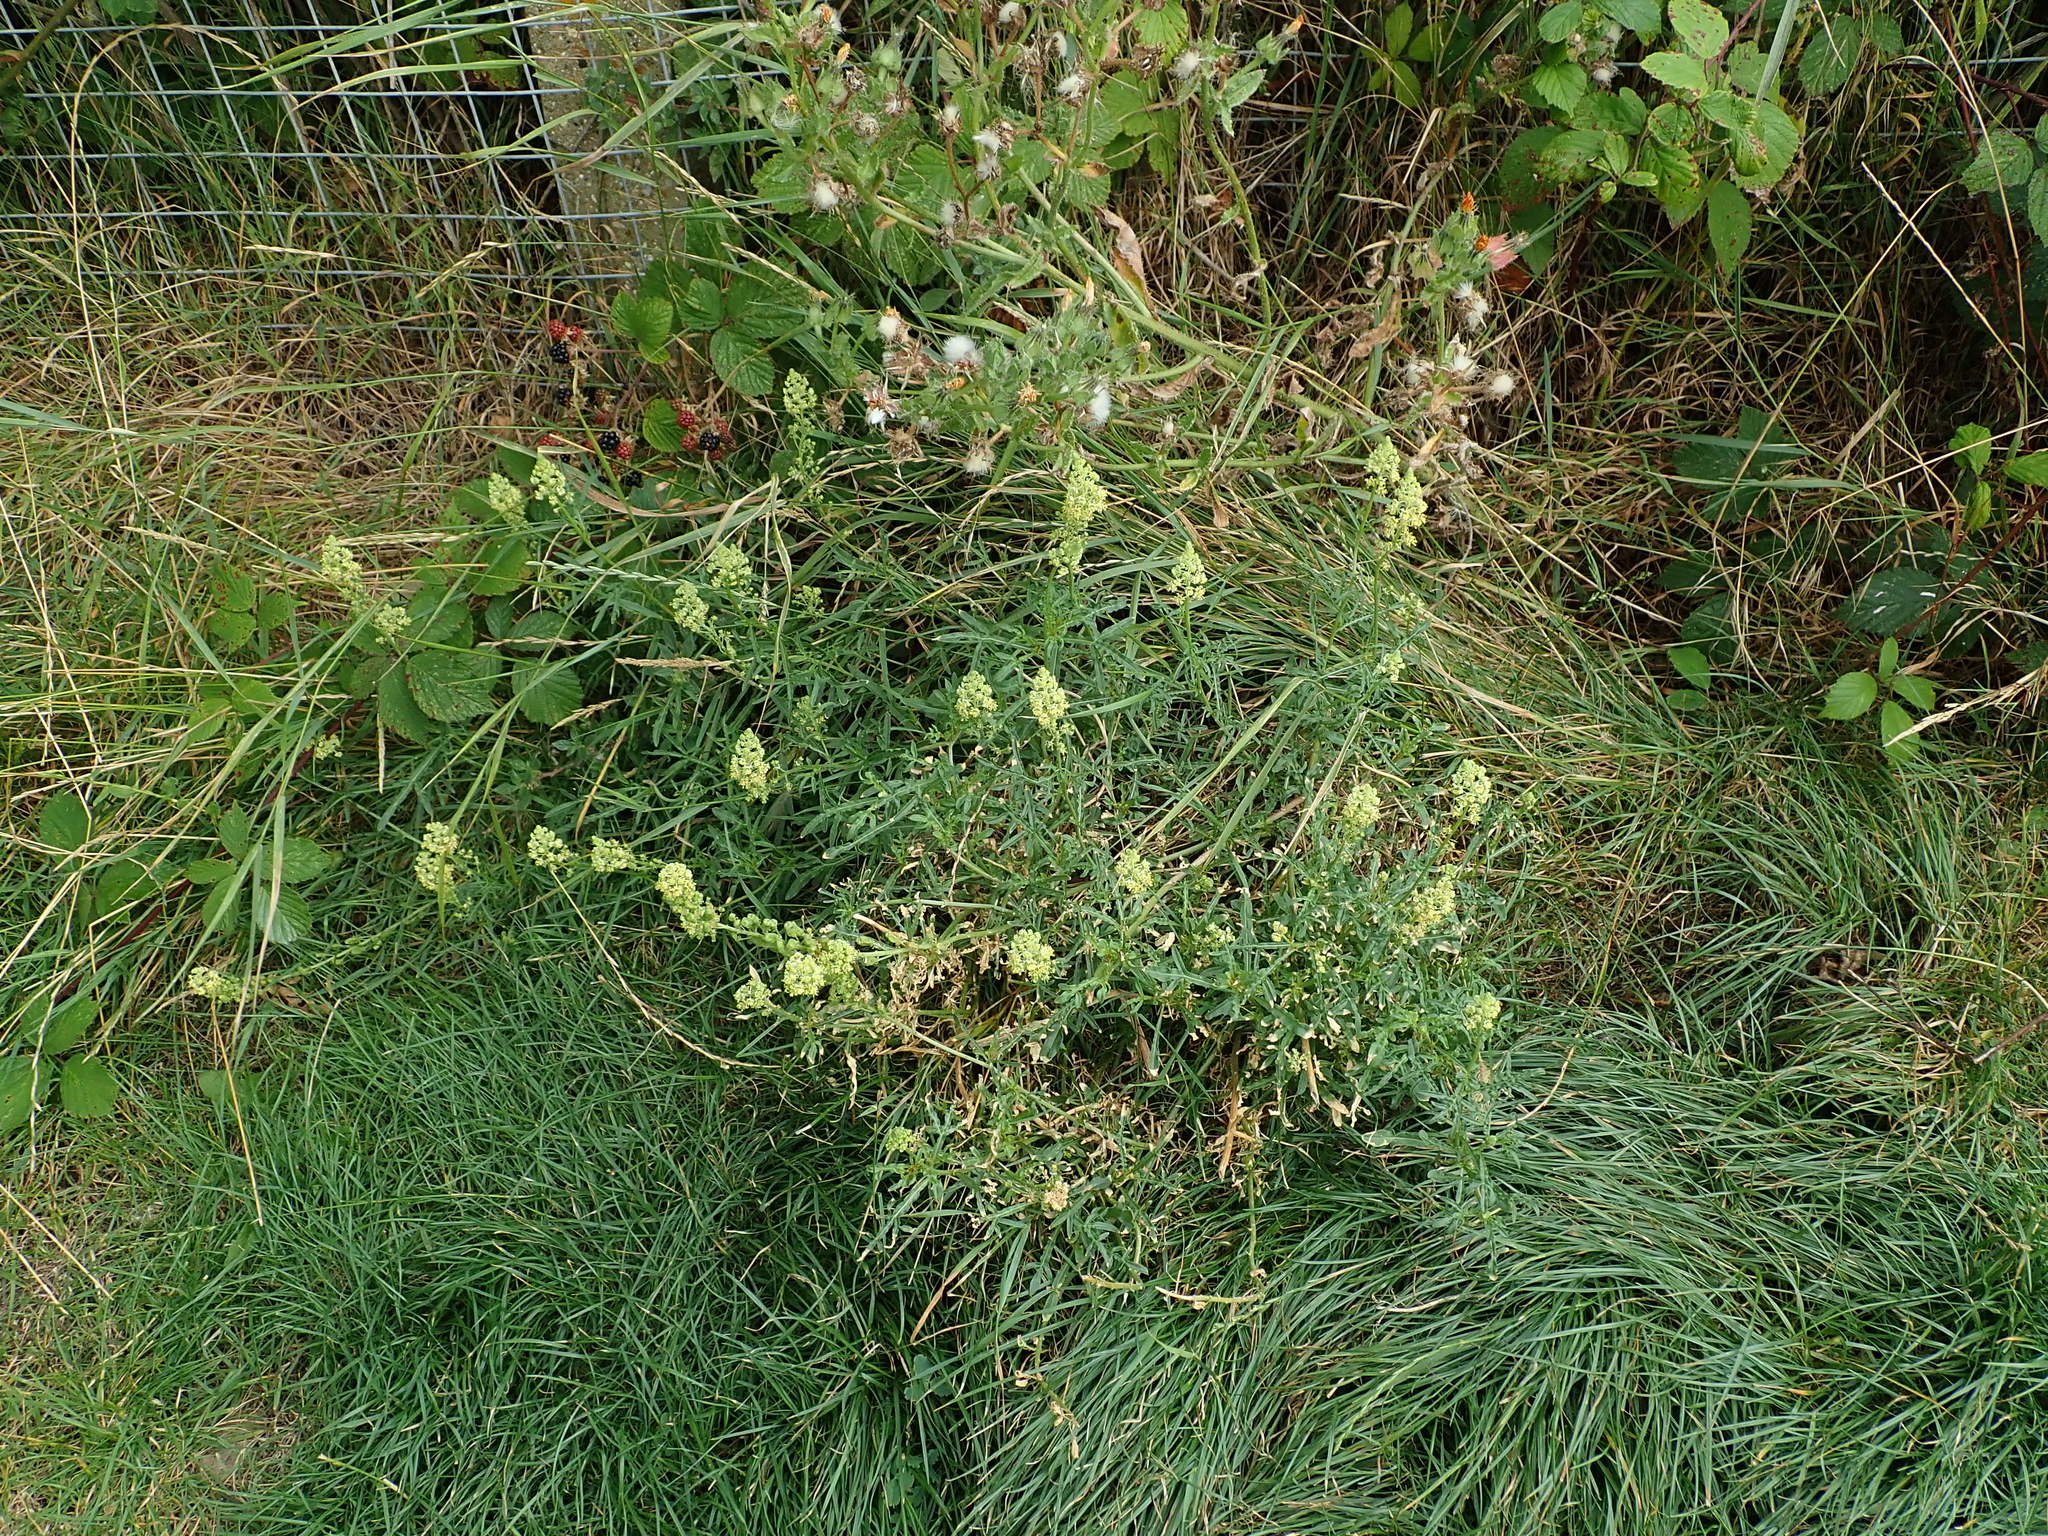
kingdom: Plantae
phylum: Tracheophyta
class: Magnoliopsida
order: Brassicales
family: Resedaceae
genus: Reseda
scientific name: Reseda lutea
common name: Wild mignonette
